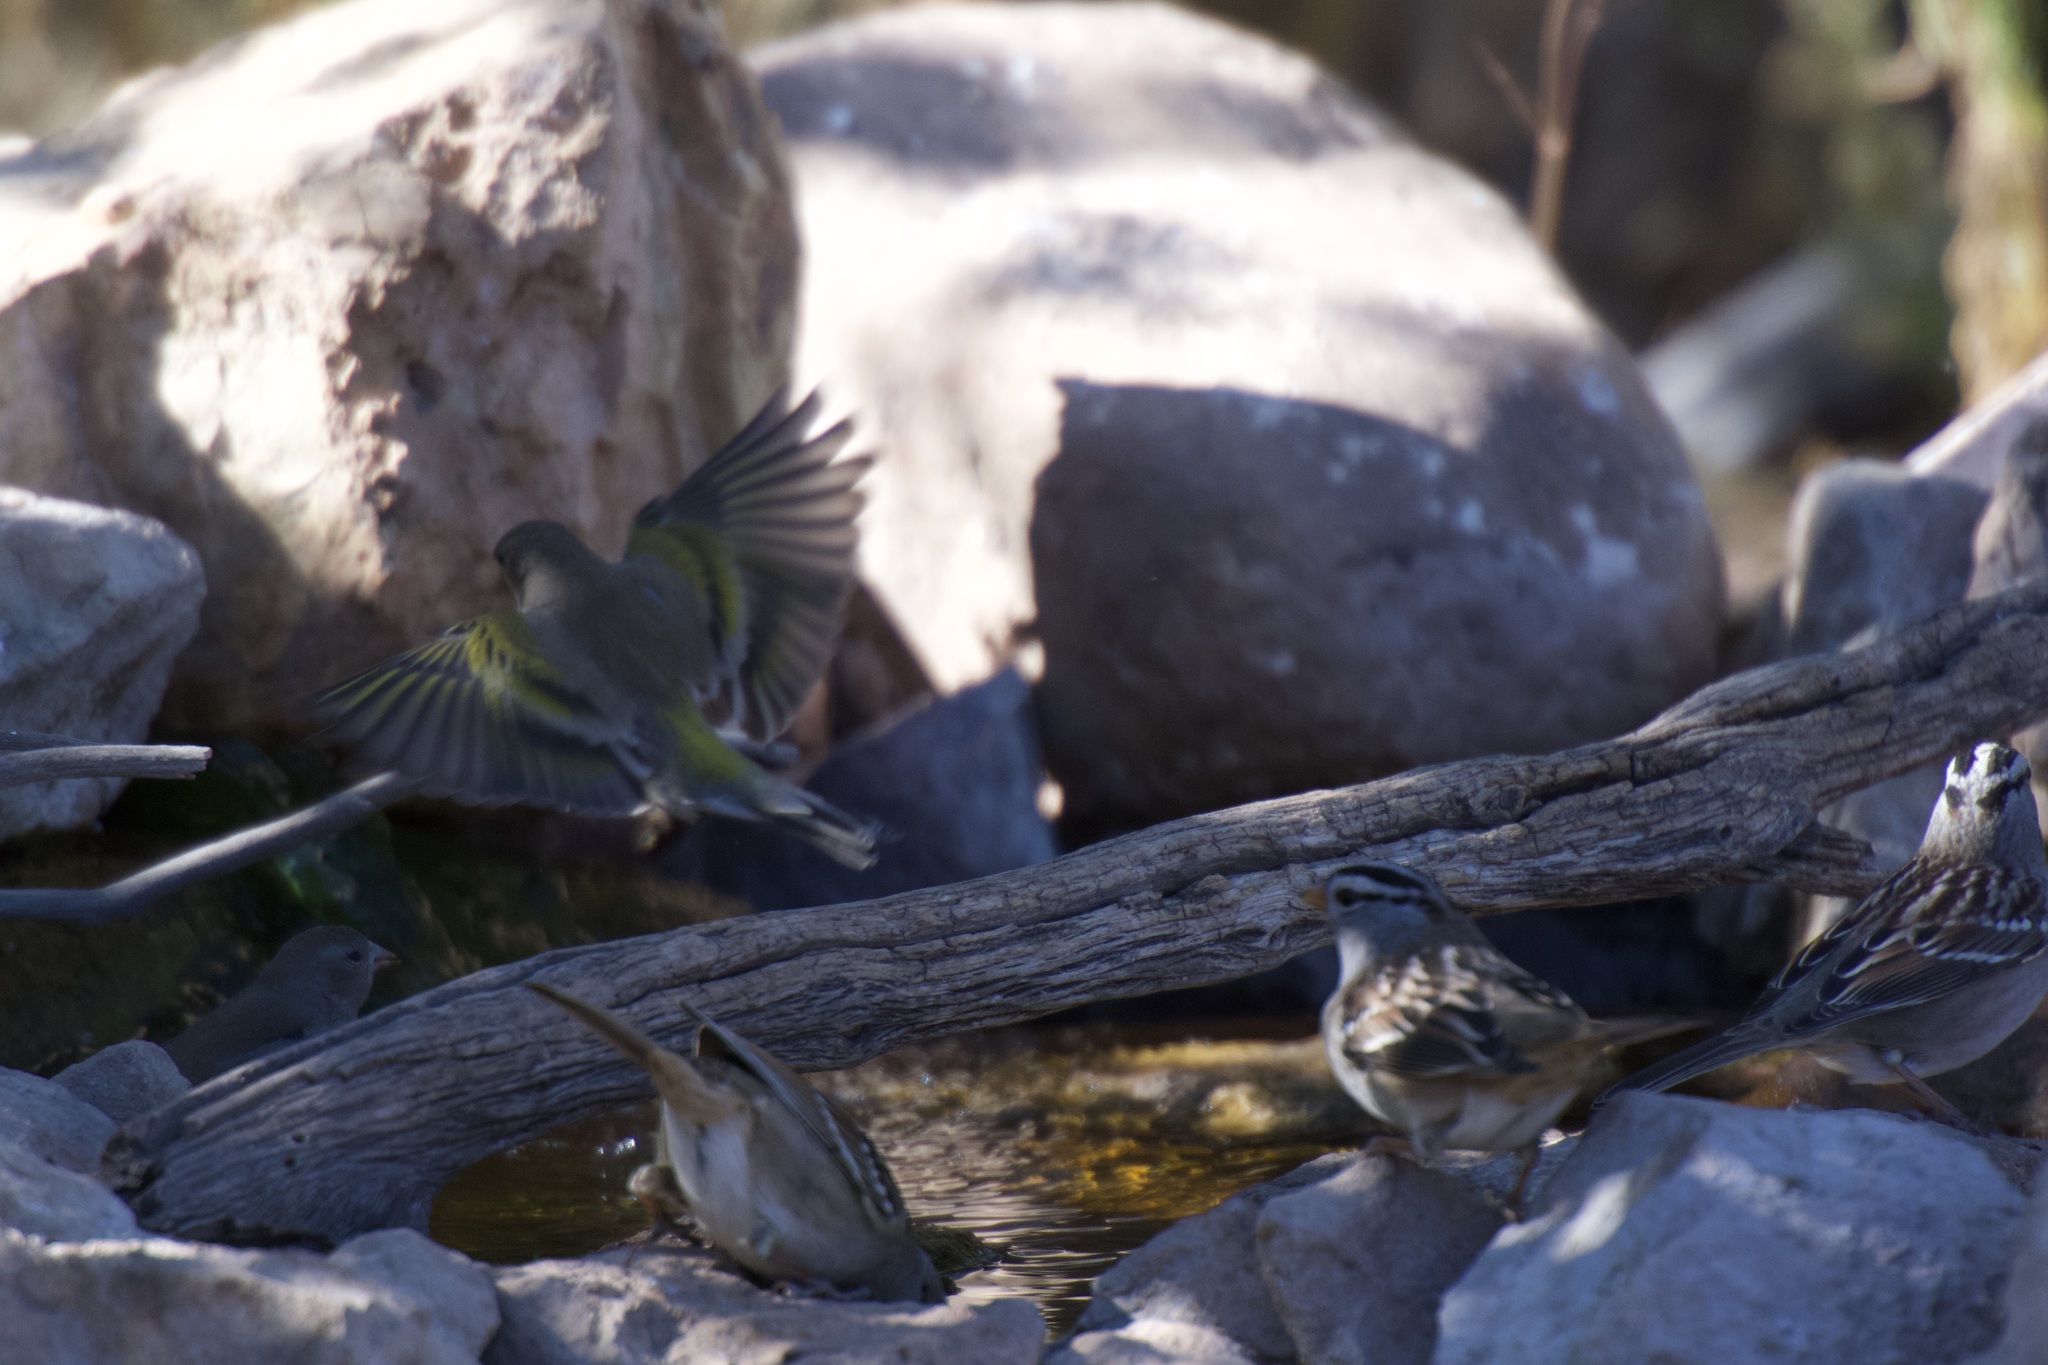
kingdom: Animalia
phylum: Chordata
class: Aves
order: Passeriformes
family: Fringillidae
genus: Spinus
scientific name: Spinus lawrencei
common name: Lawrence's goldfinch
